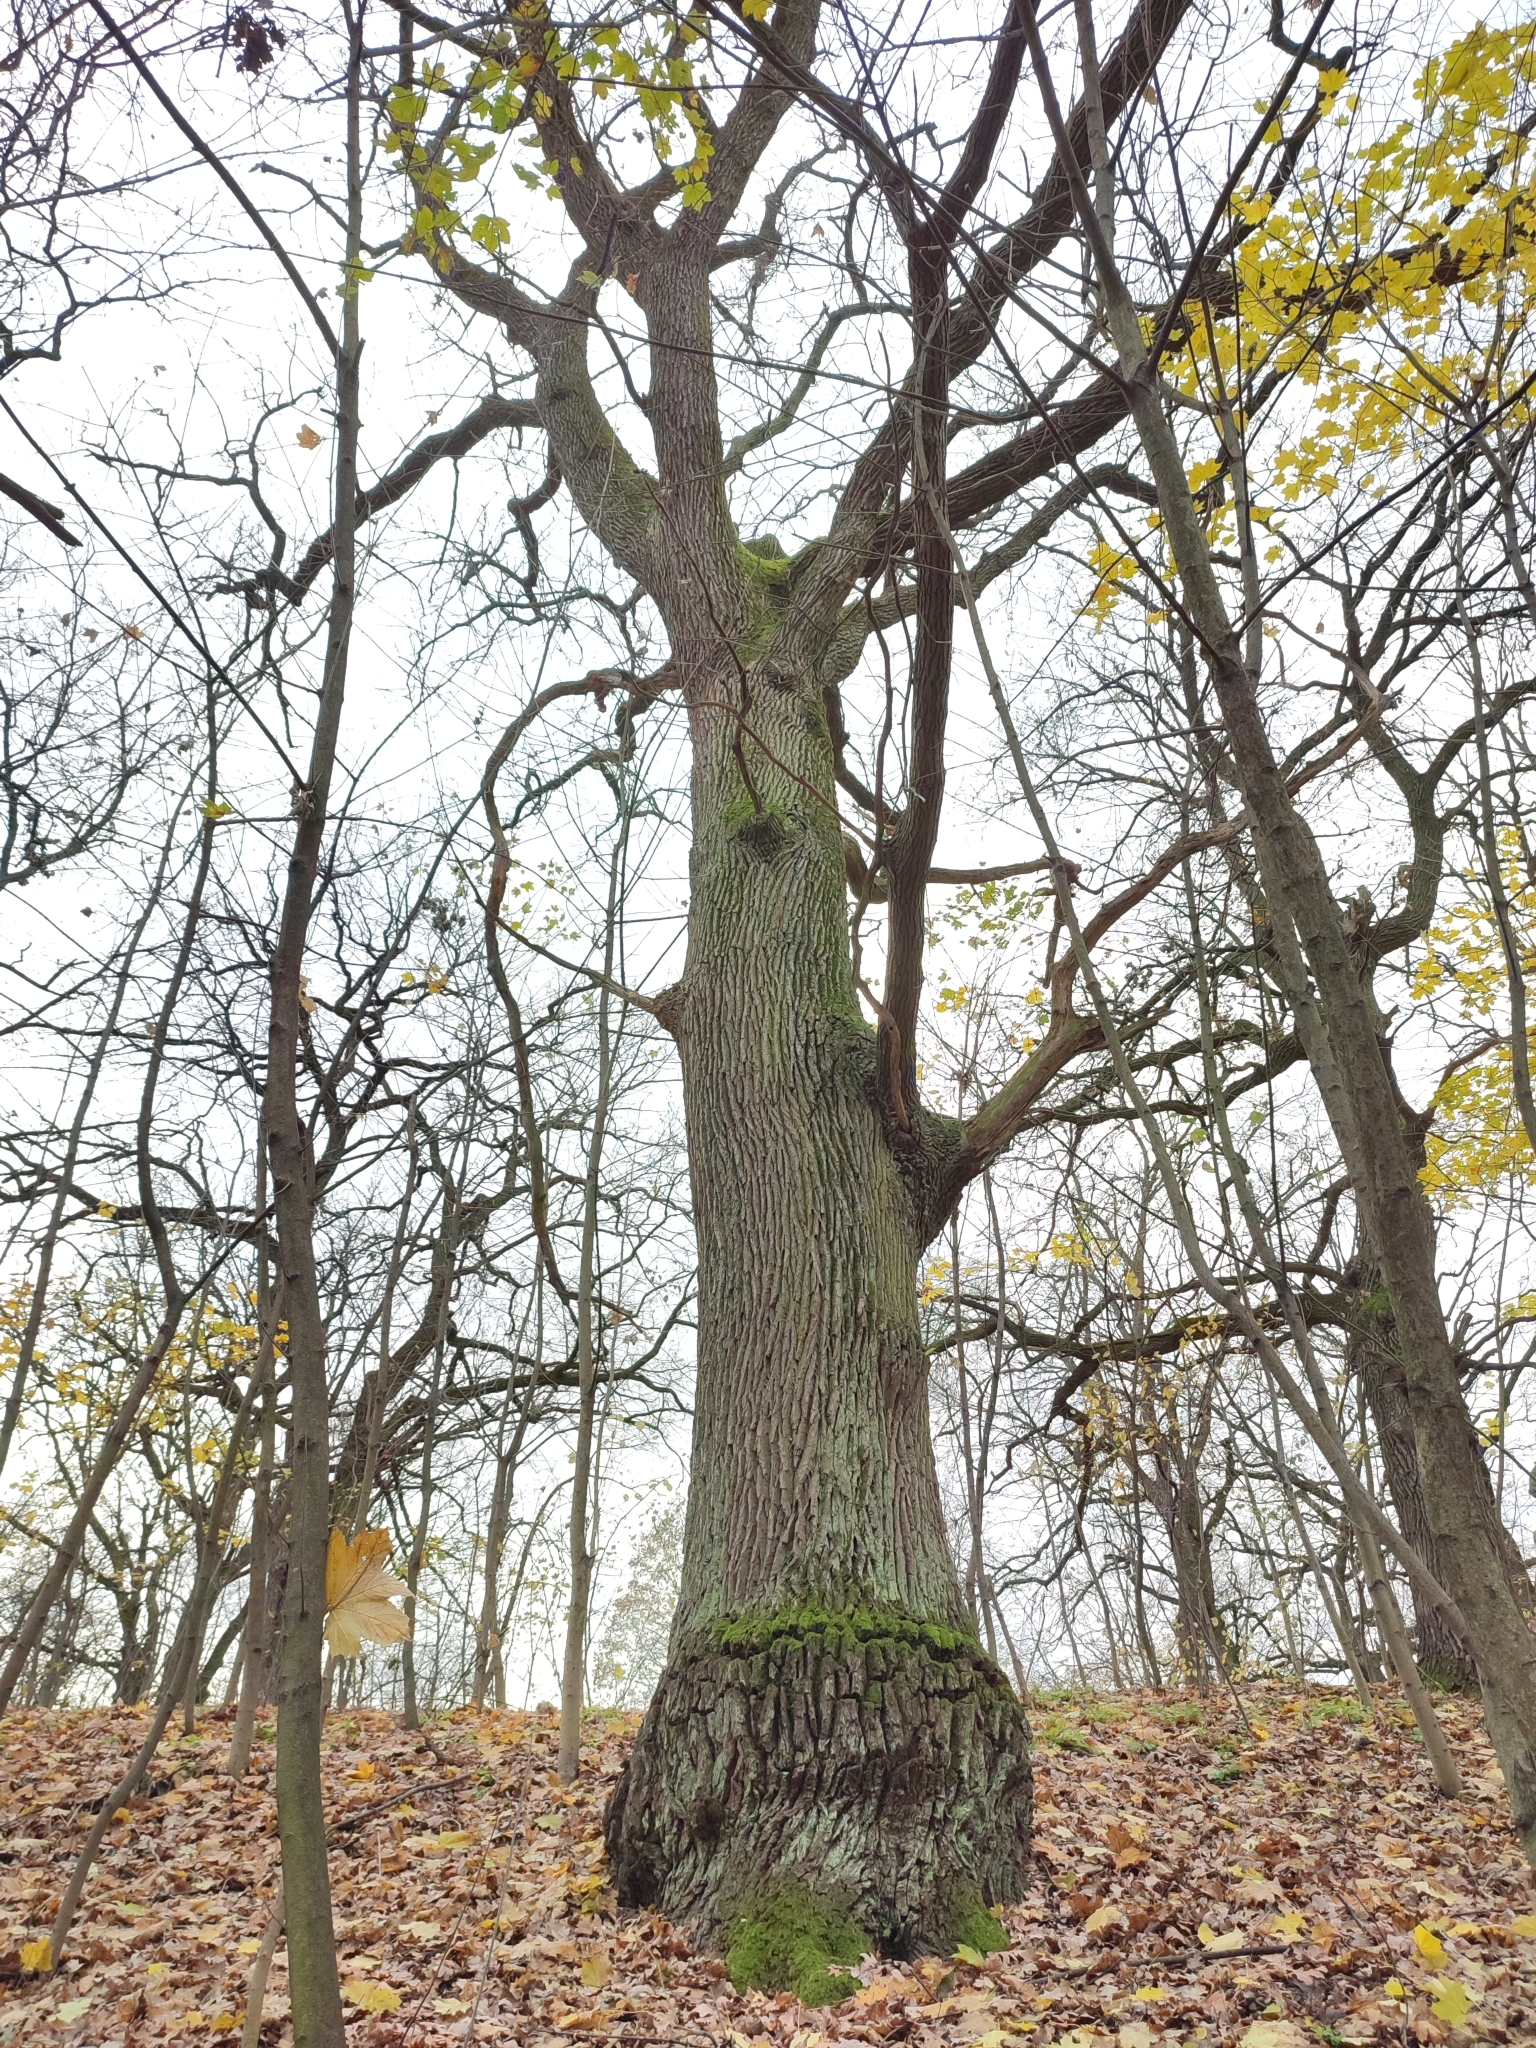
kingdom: Plantae
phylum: Tracheophyta
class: Magnoliopsida
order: Fagales
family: Fagaceae
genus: Quercus
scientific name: Quercus robur
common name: Pedunculate oak
